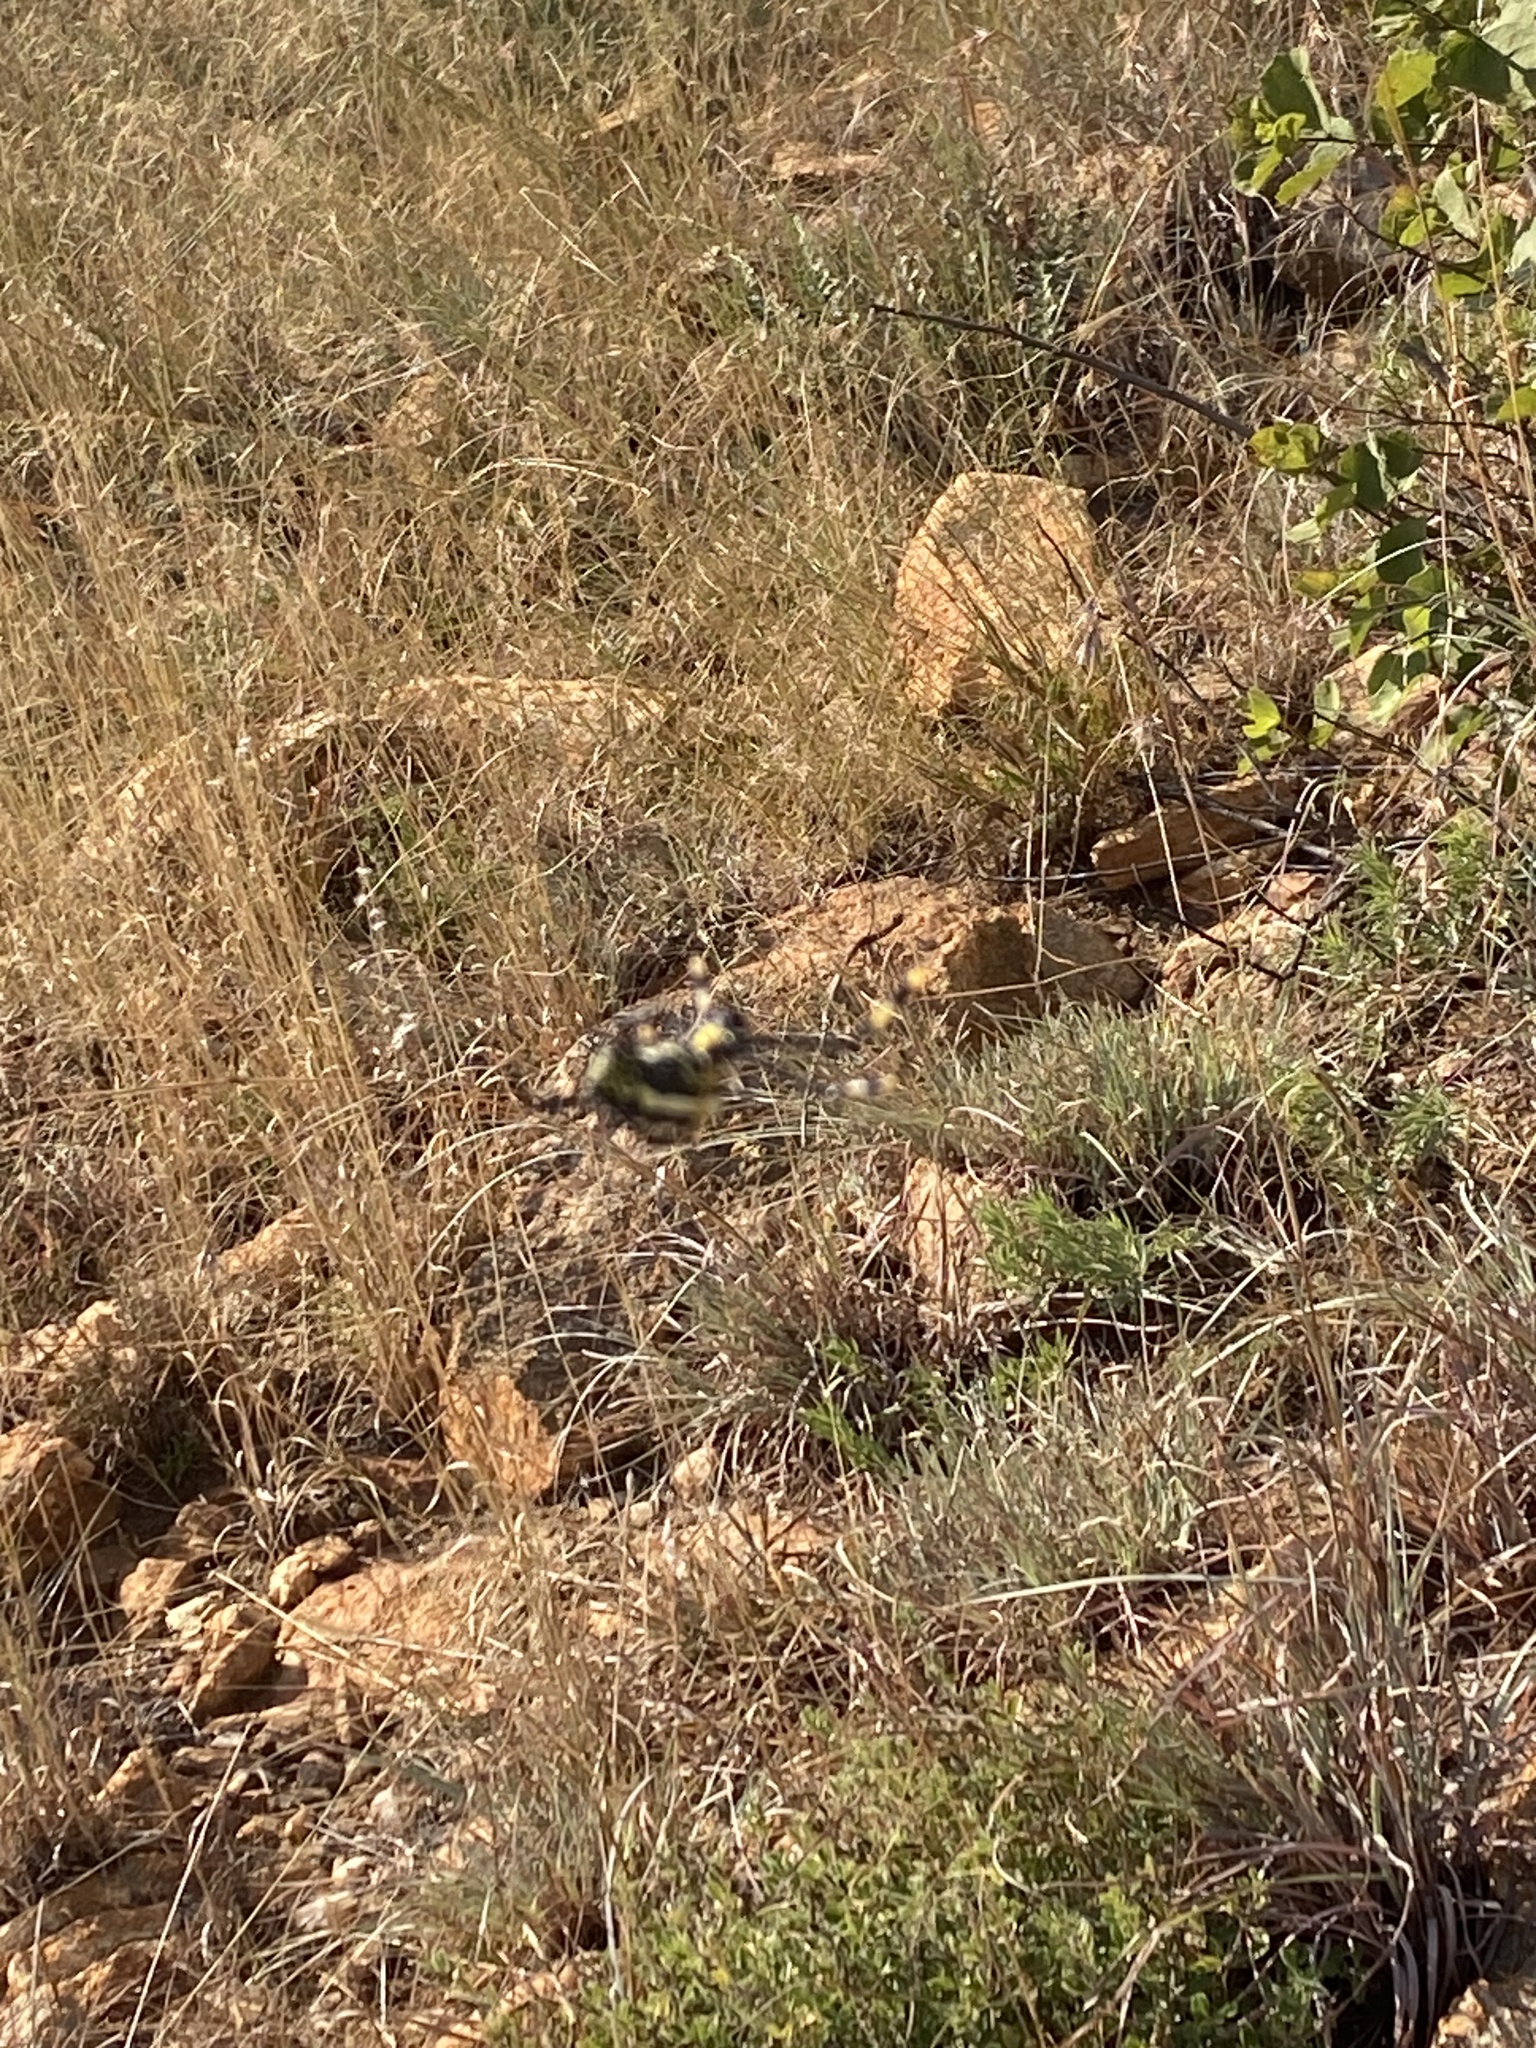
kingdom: Animalia
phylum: Arthropoda
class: Arachnida
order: Araneae
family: Araneidae
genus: Trichonephila
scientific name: Trichonephila senegalensis
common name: Banded golden orb weaver
